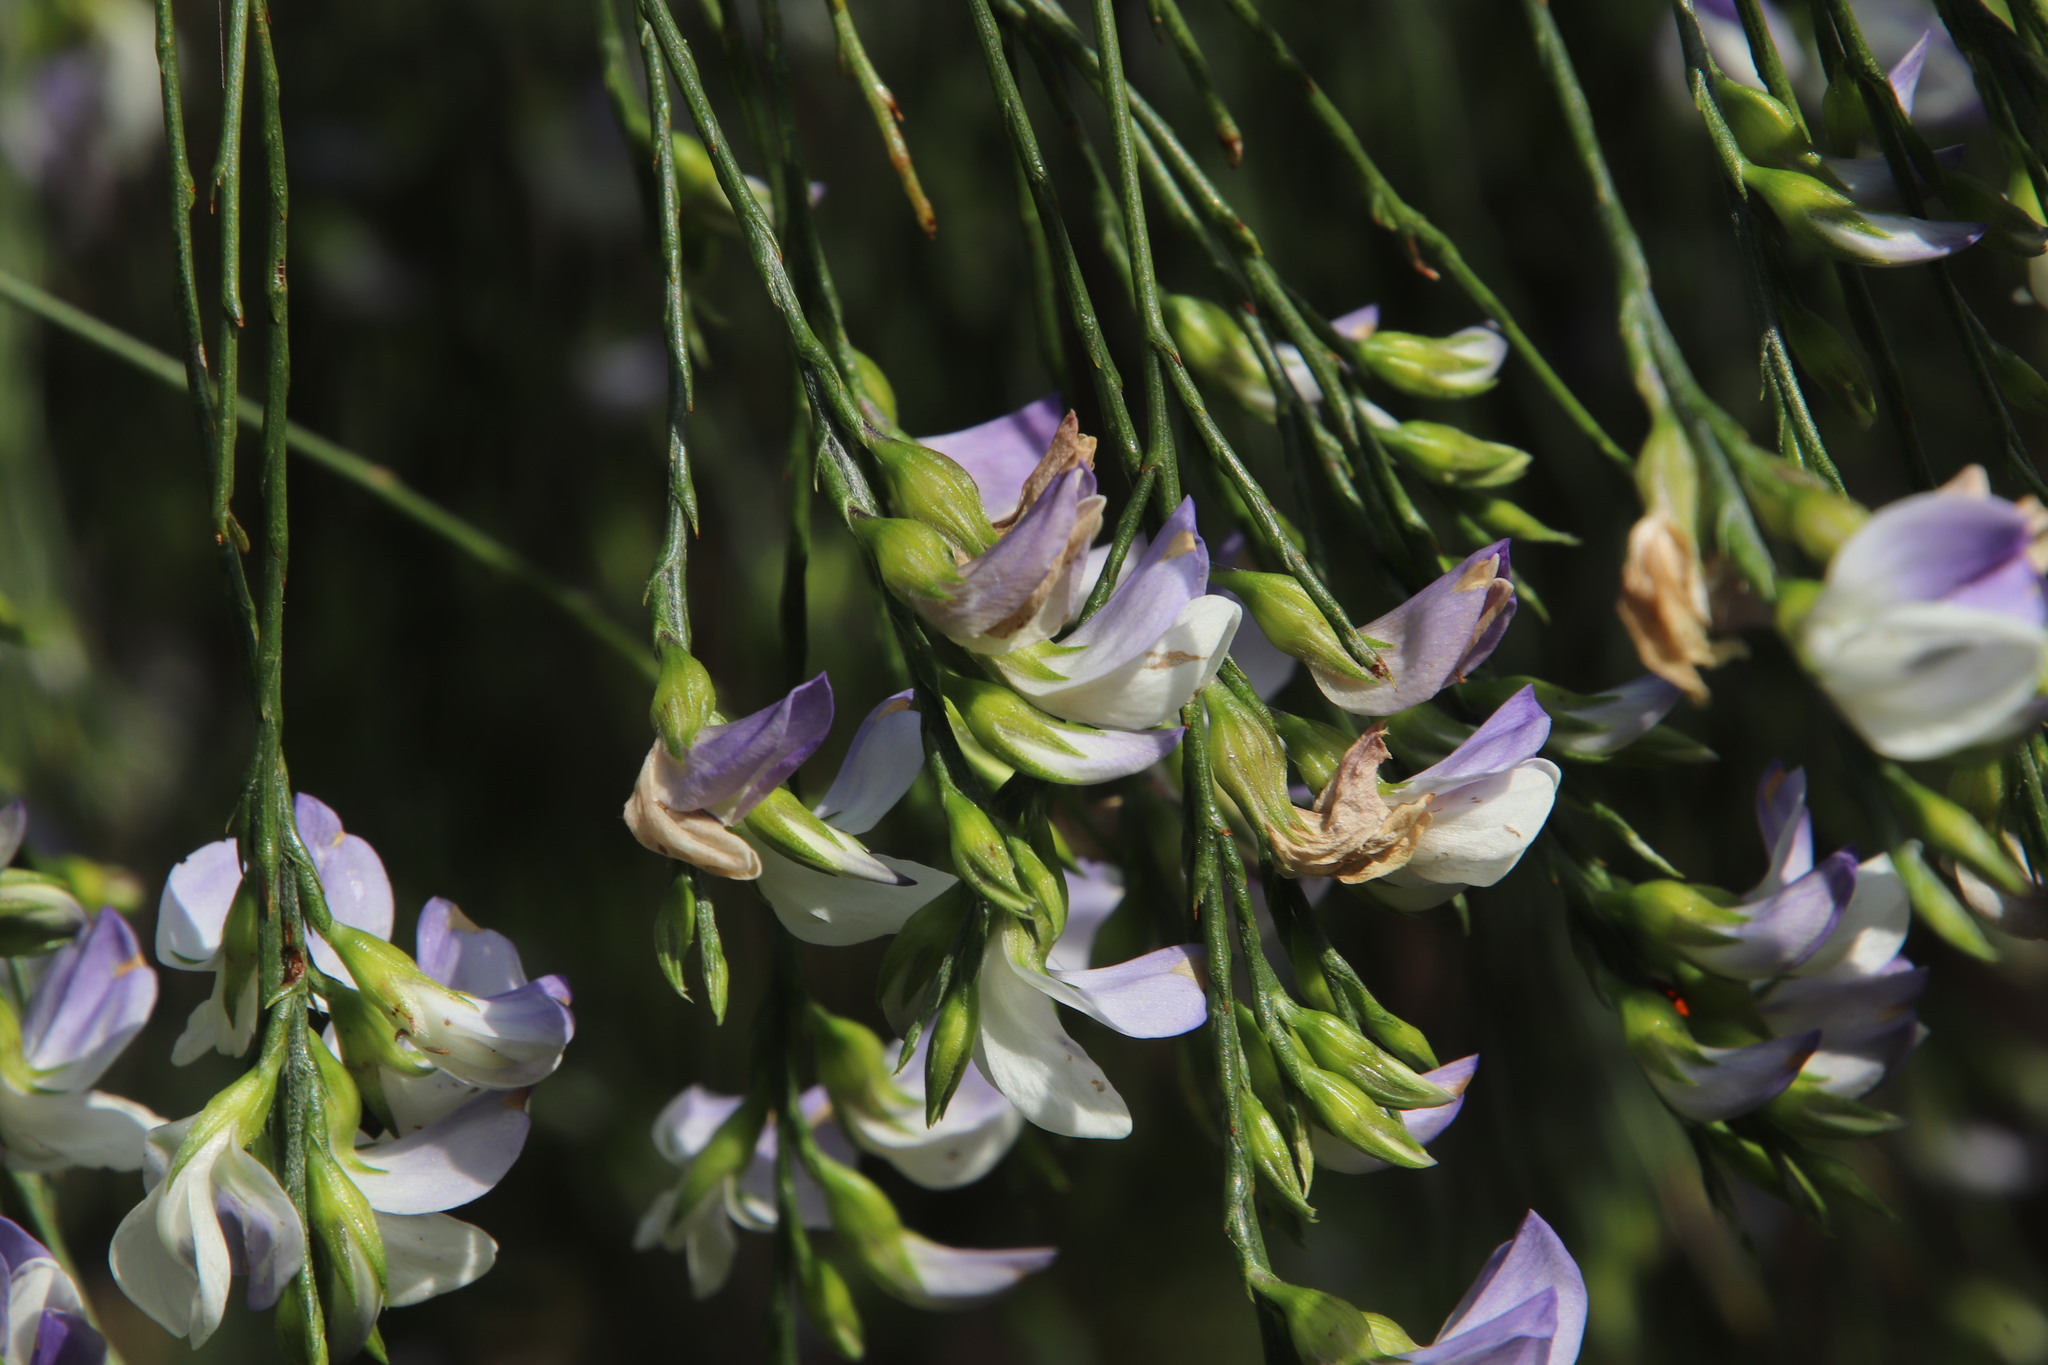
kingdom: Plantae
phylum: Tracheophyta
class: Magnoliopsida
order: Fabales
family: Fabaceae
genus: Psoralea
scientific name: Psoralea fleta
